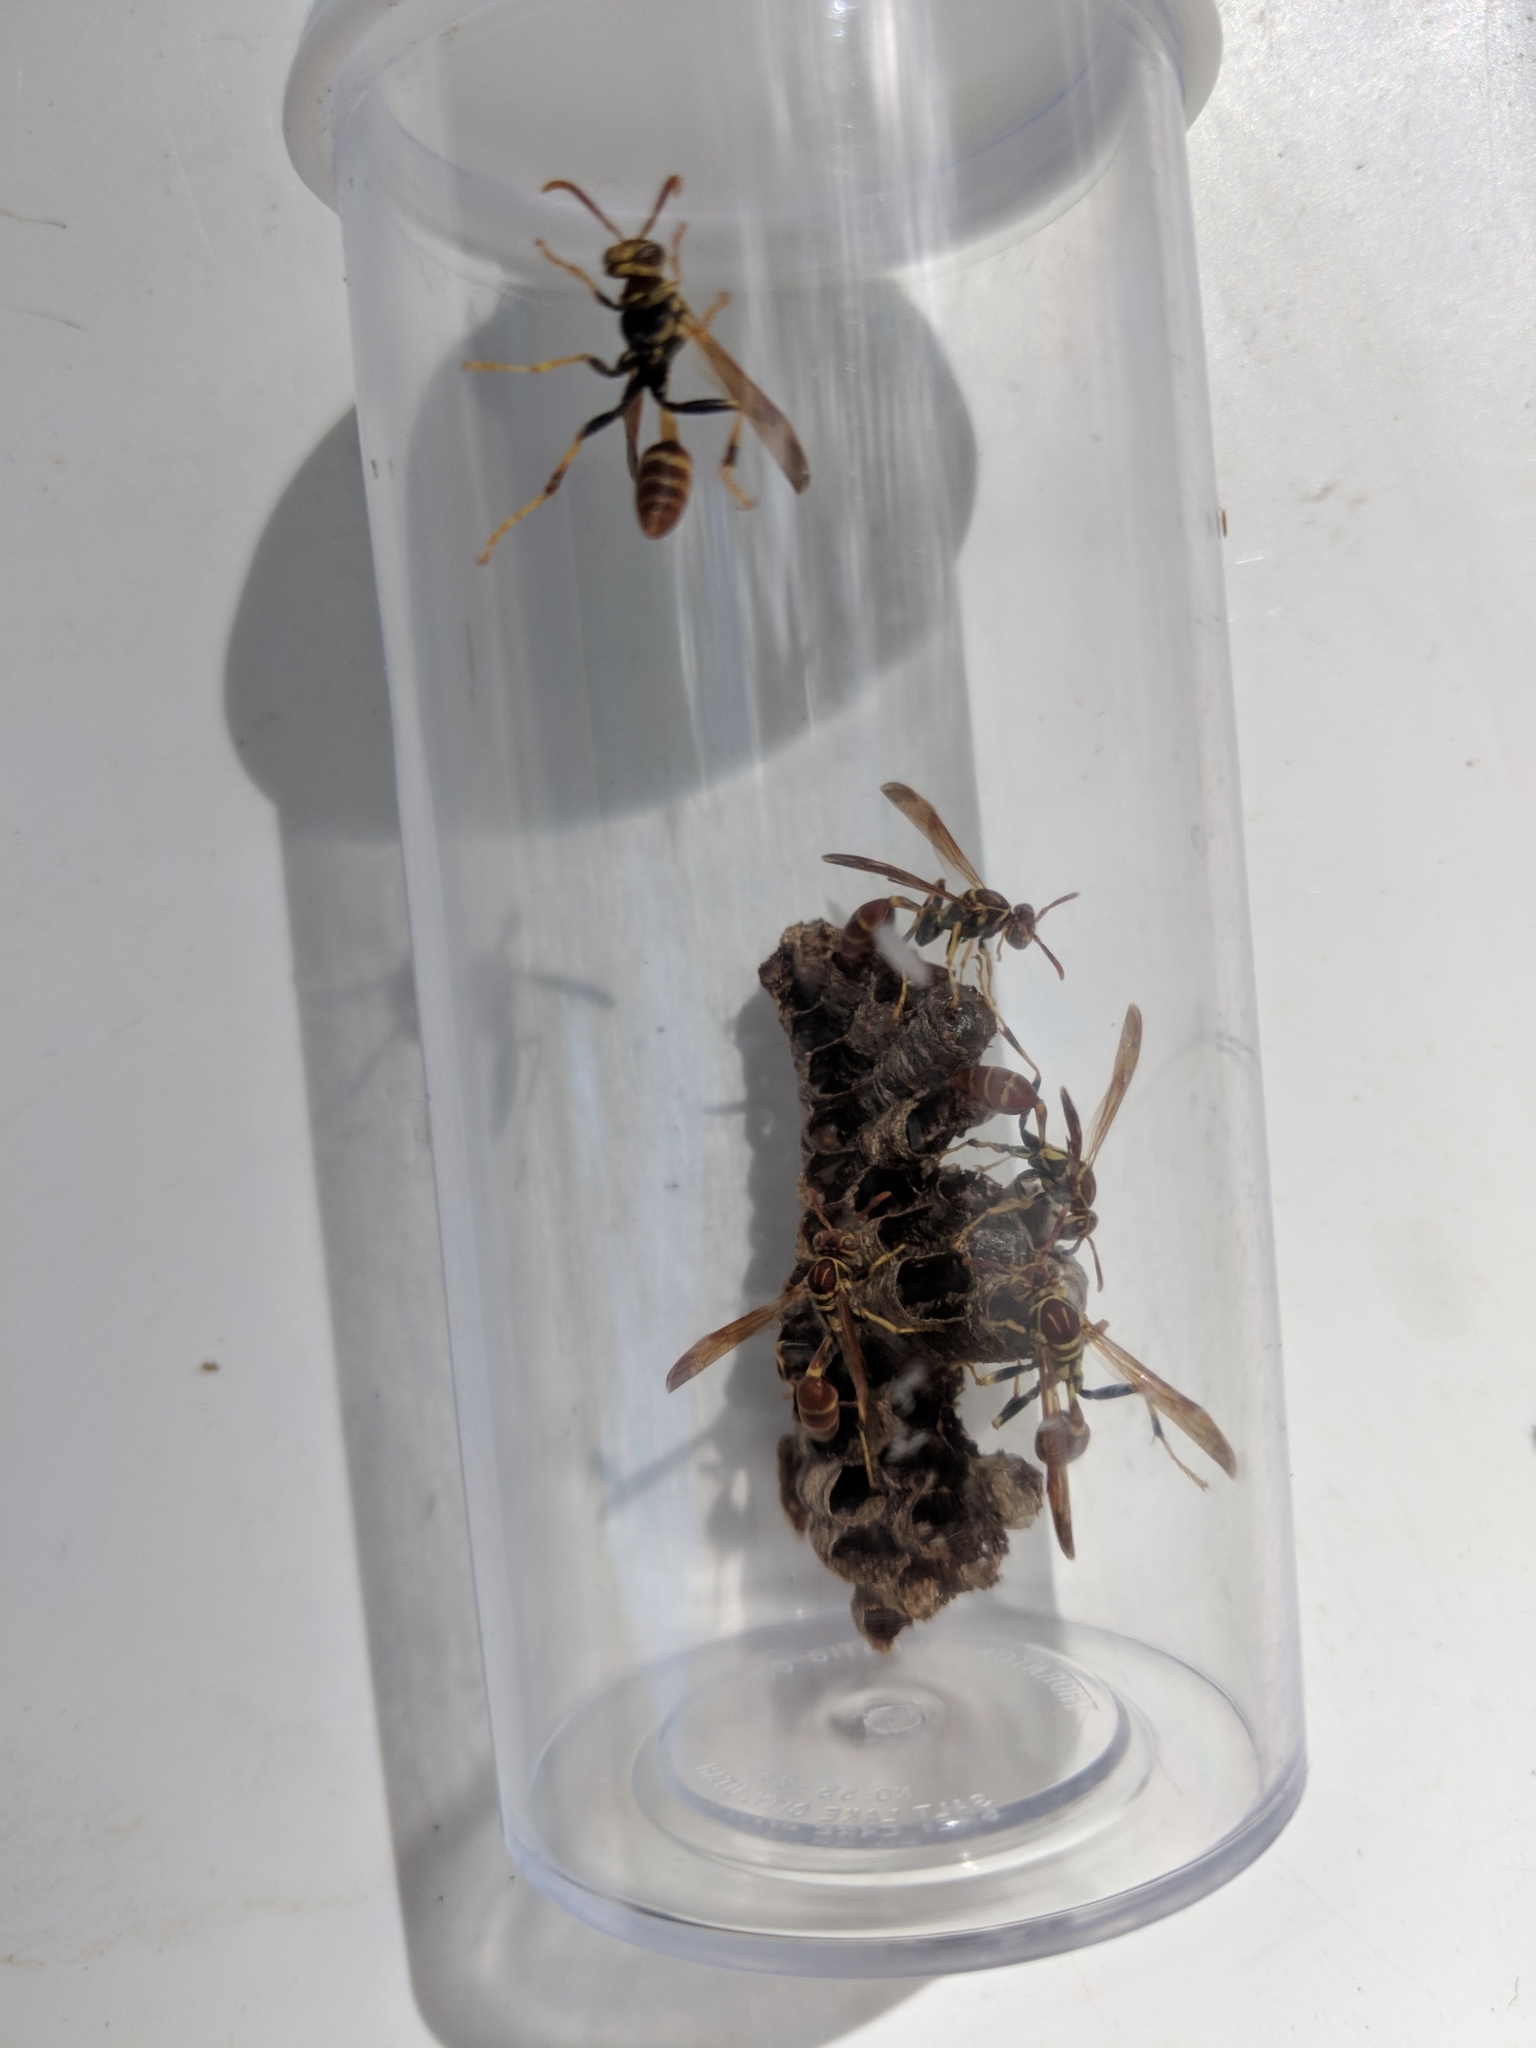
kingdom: Animalia
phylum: Arthropoda
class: Insecta
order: Hymenoptera
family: Vespidae
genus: Mischocyttarus
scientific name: Mischocyttarus mexicanus
